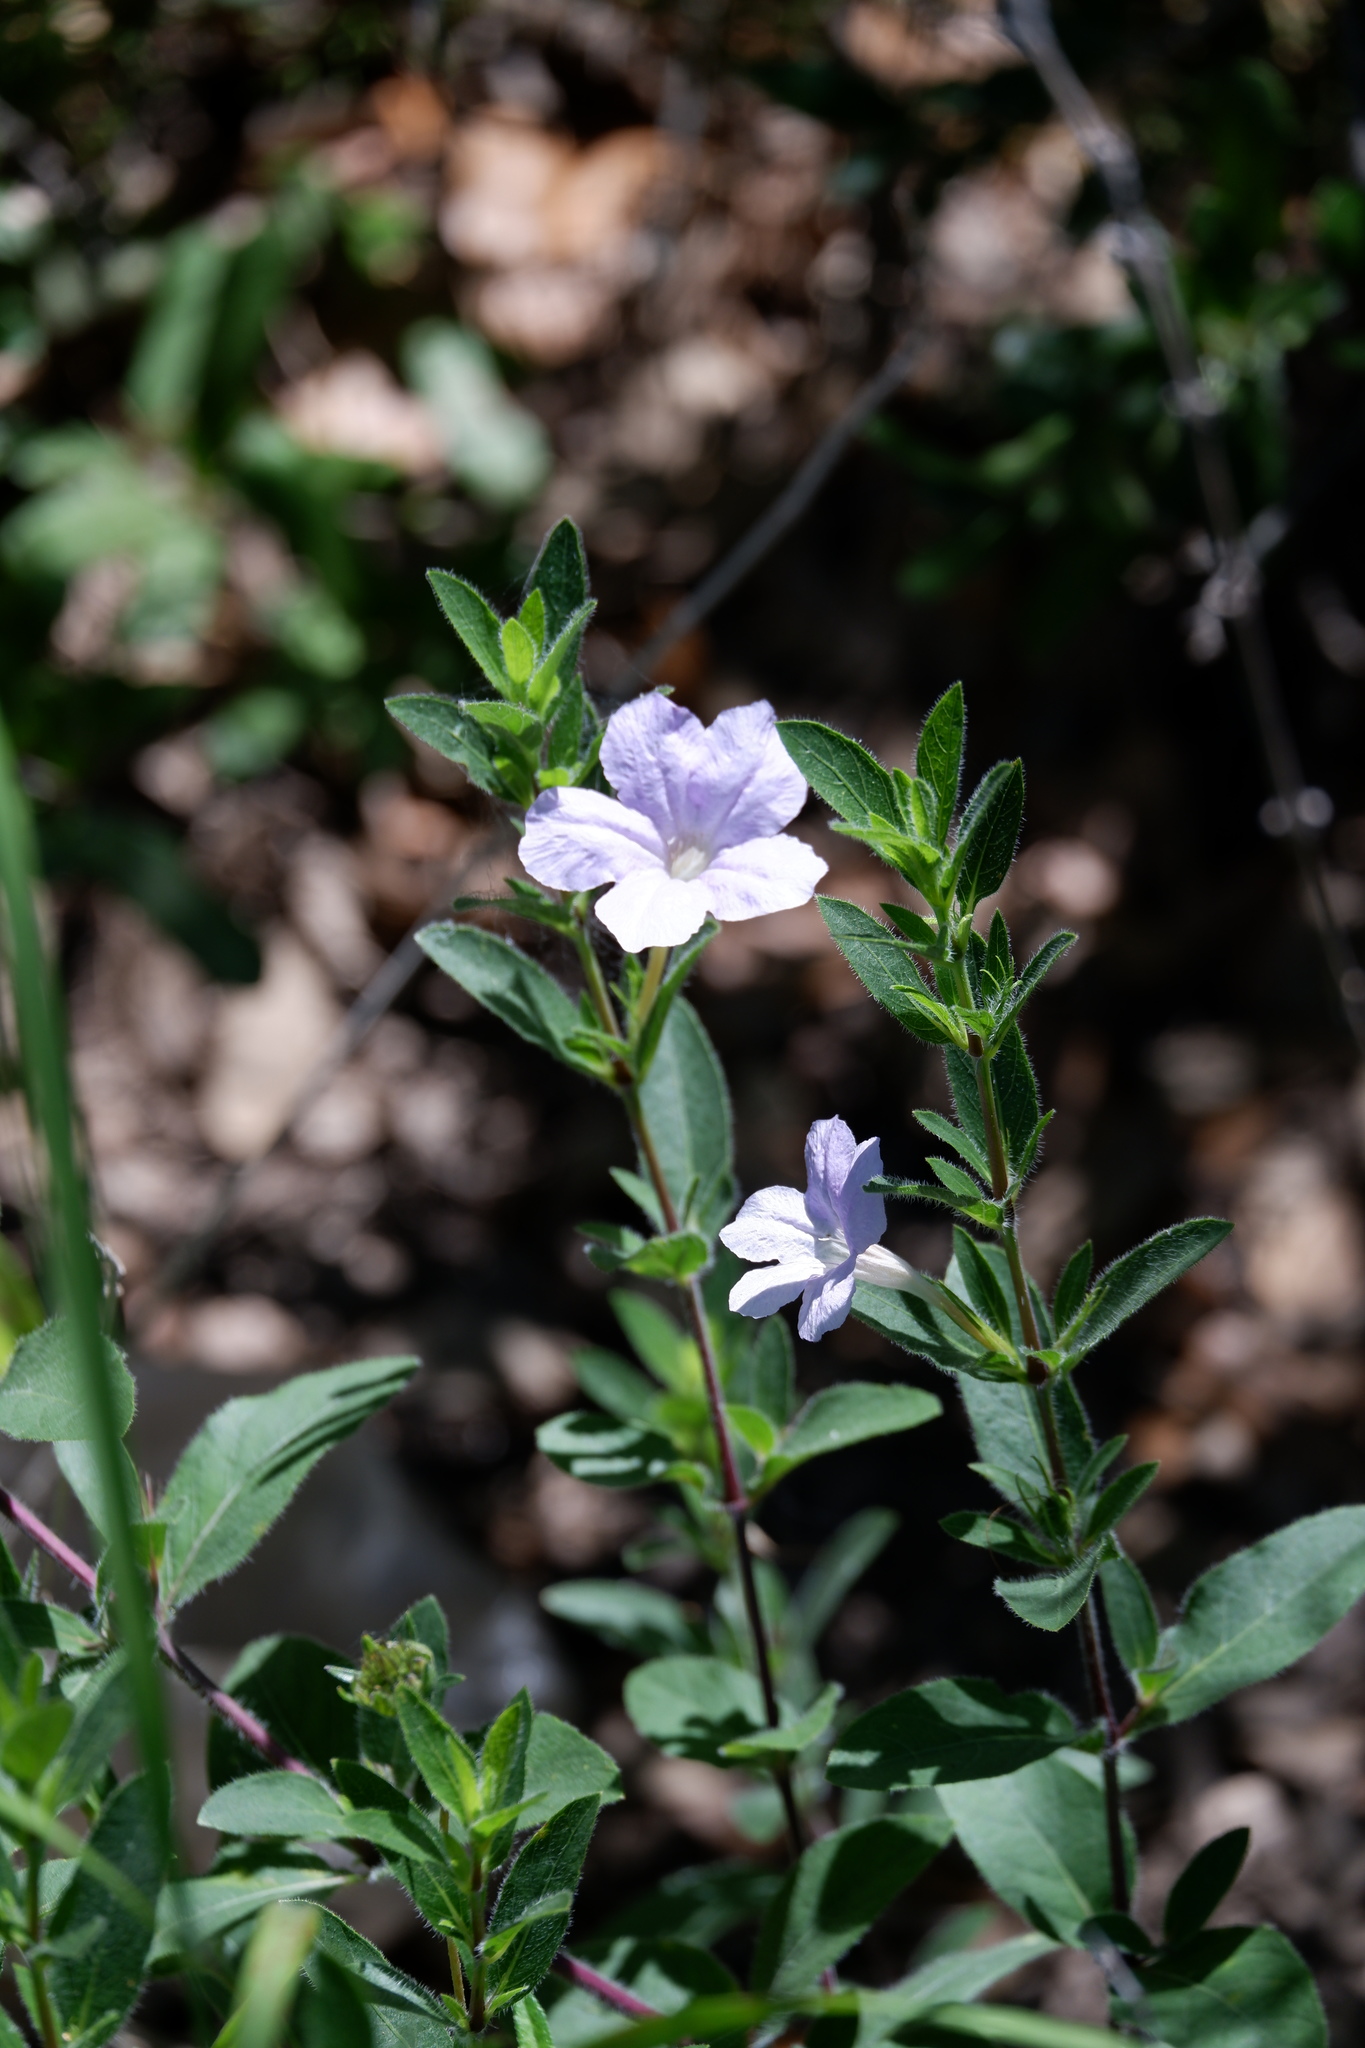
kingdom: Plantae
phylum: Tracheophyta
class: Magnoliopsida
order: Lamiales
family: Acanthaceae
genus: Ruellia
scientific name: Ruellia humilis
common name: Fringe-leaf ruellia
